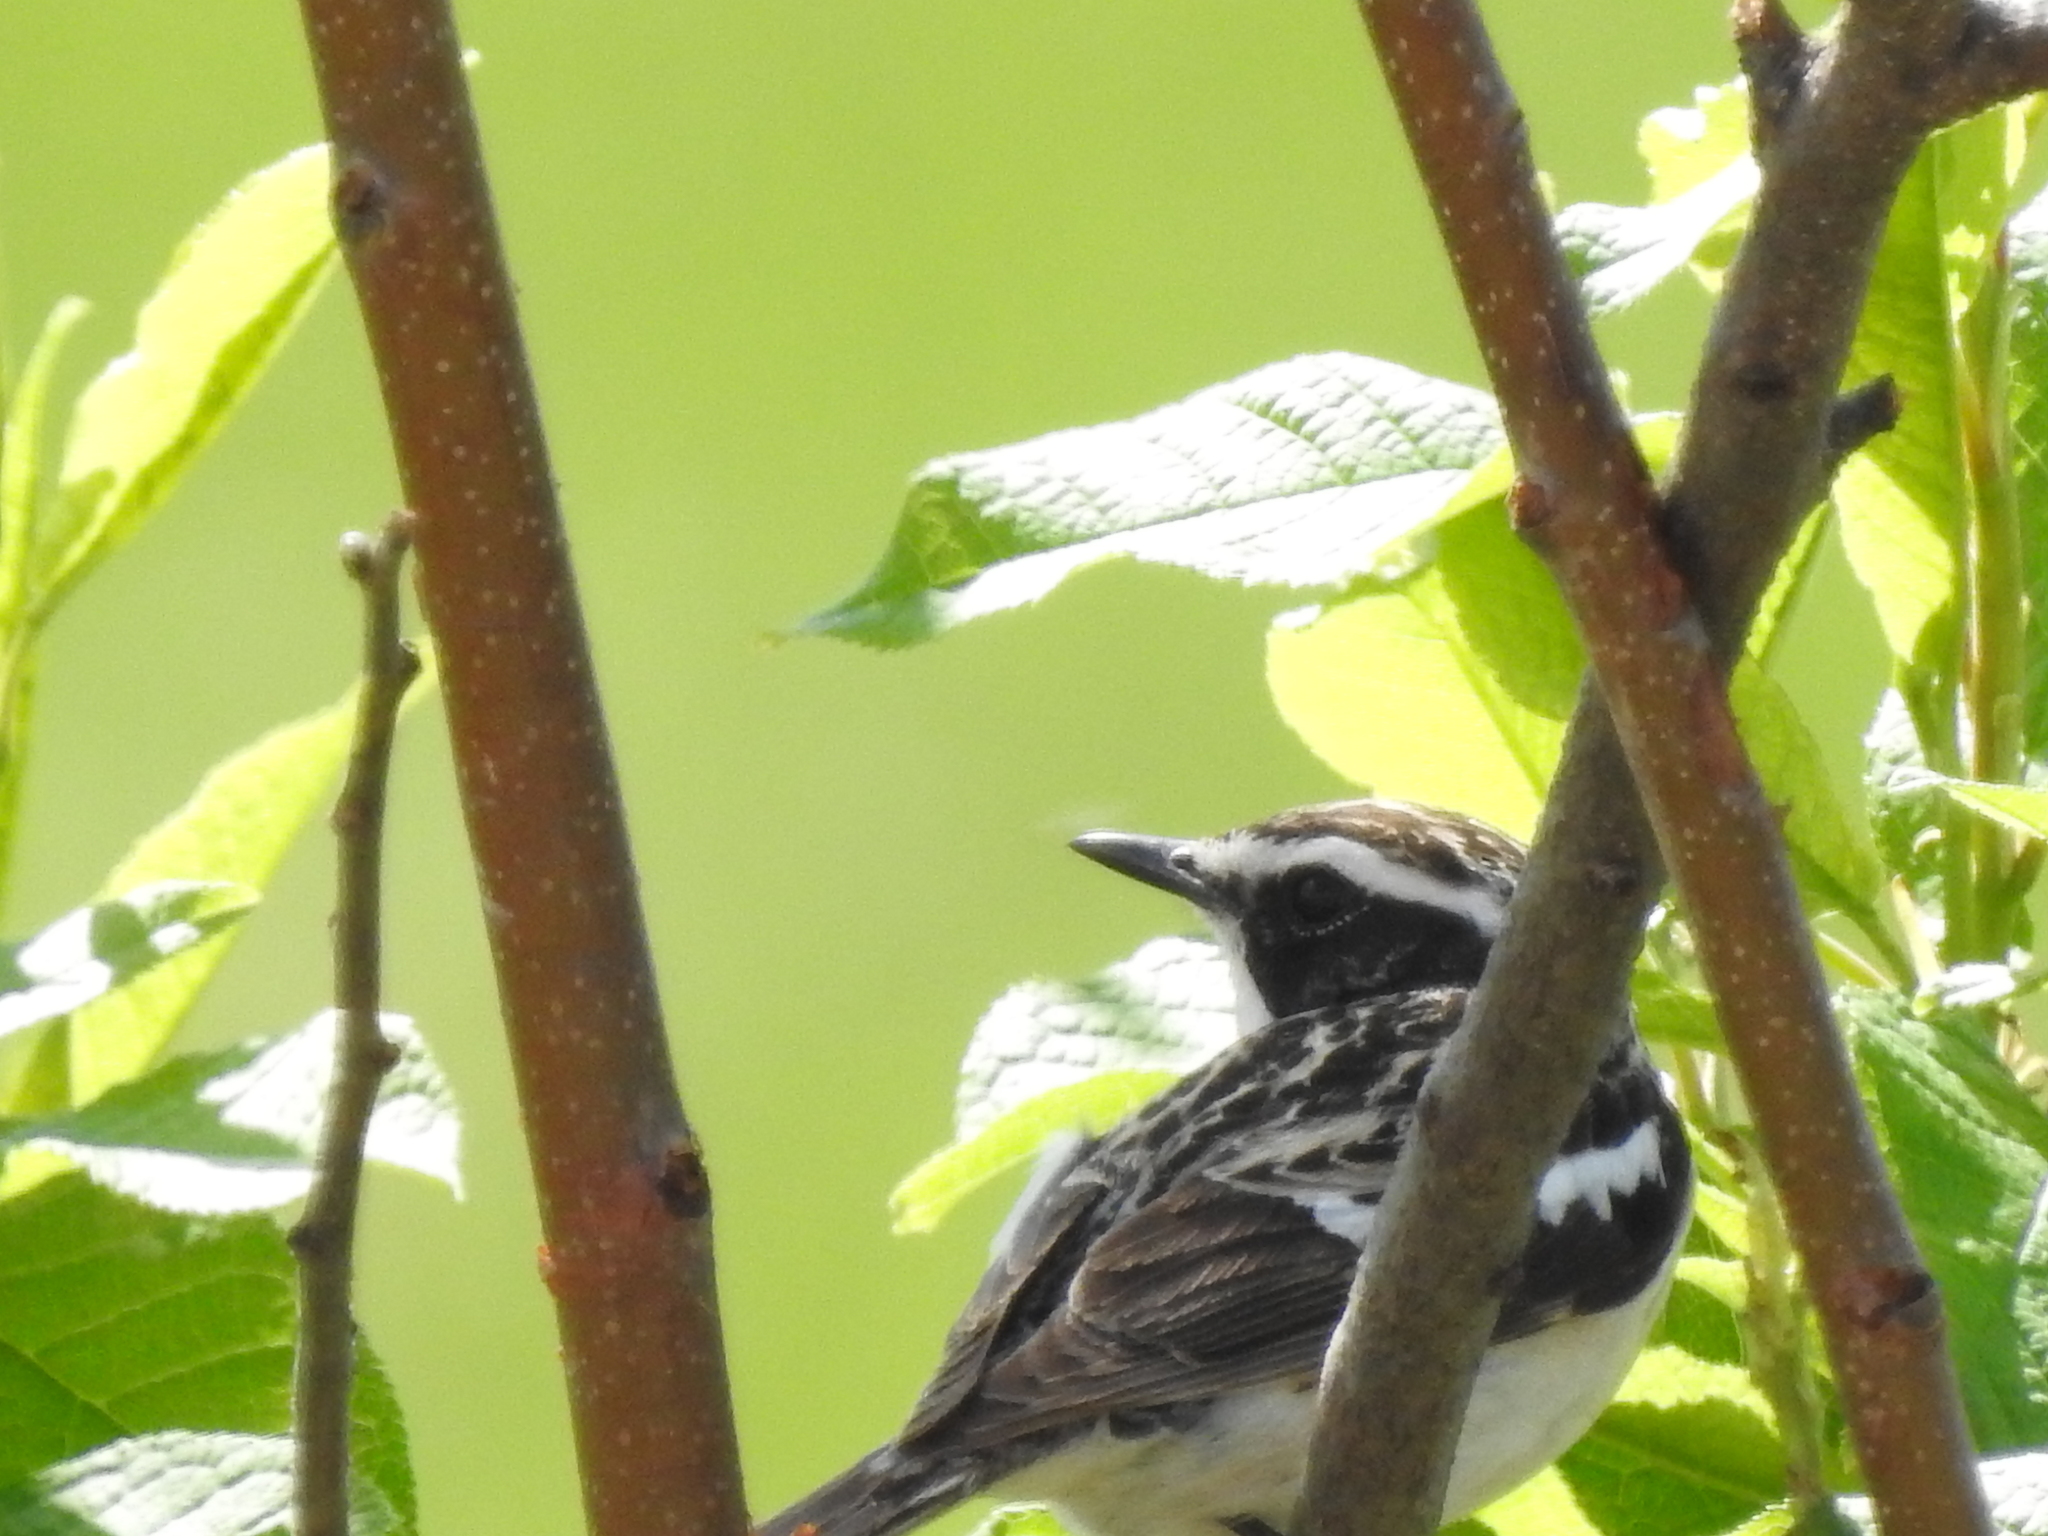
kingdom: Animalia
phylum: Chordata
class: Aves
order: Passeriformes
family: Muscicapidae
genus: Saxicola
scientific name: Saxicola rubetra
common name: Whinchat
